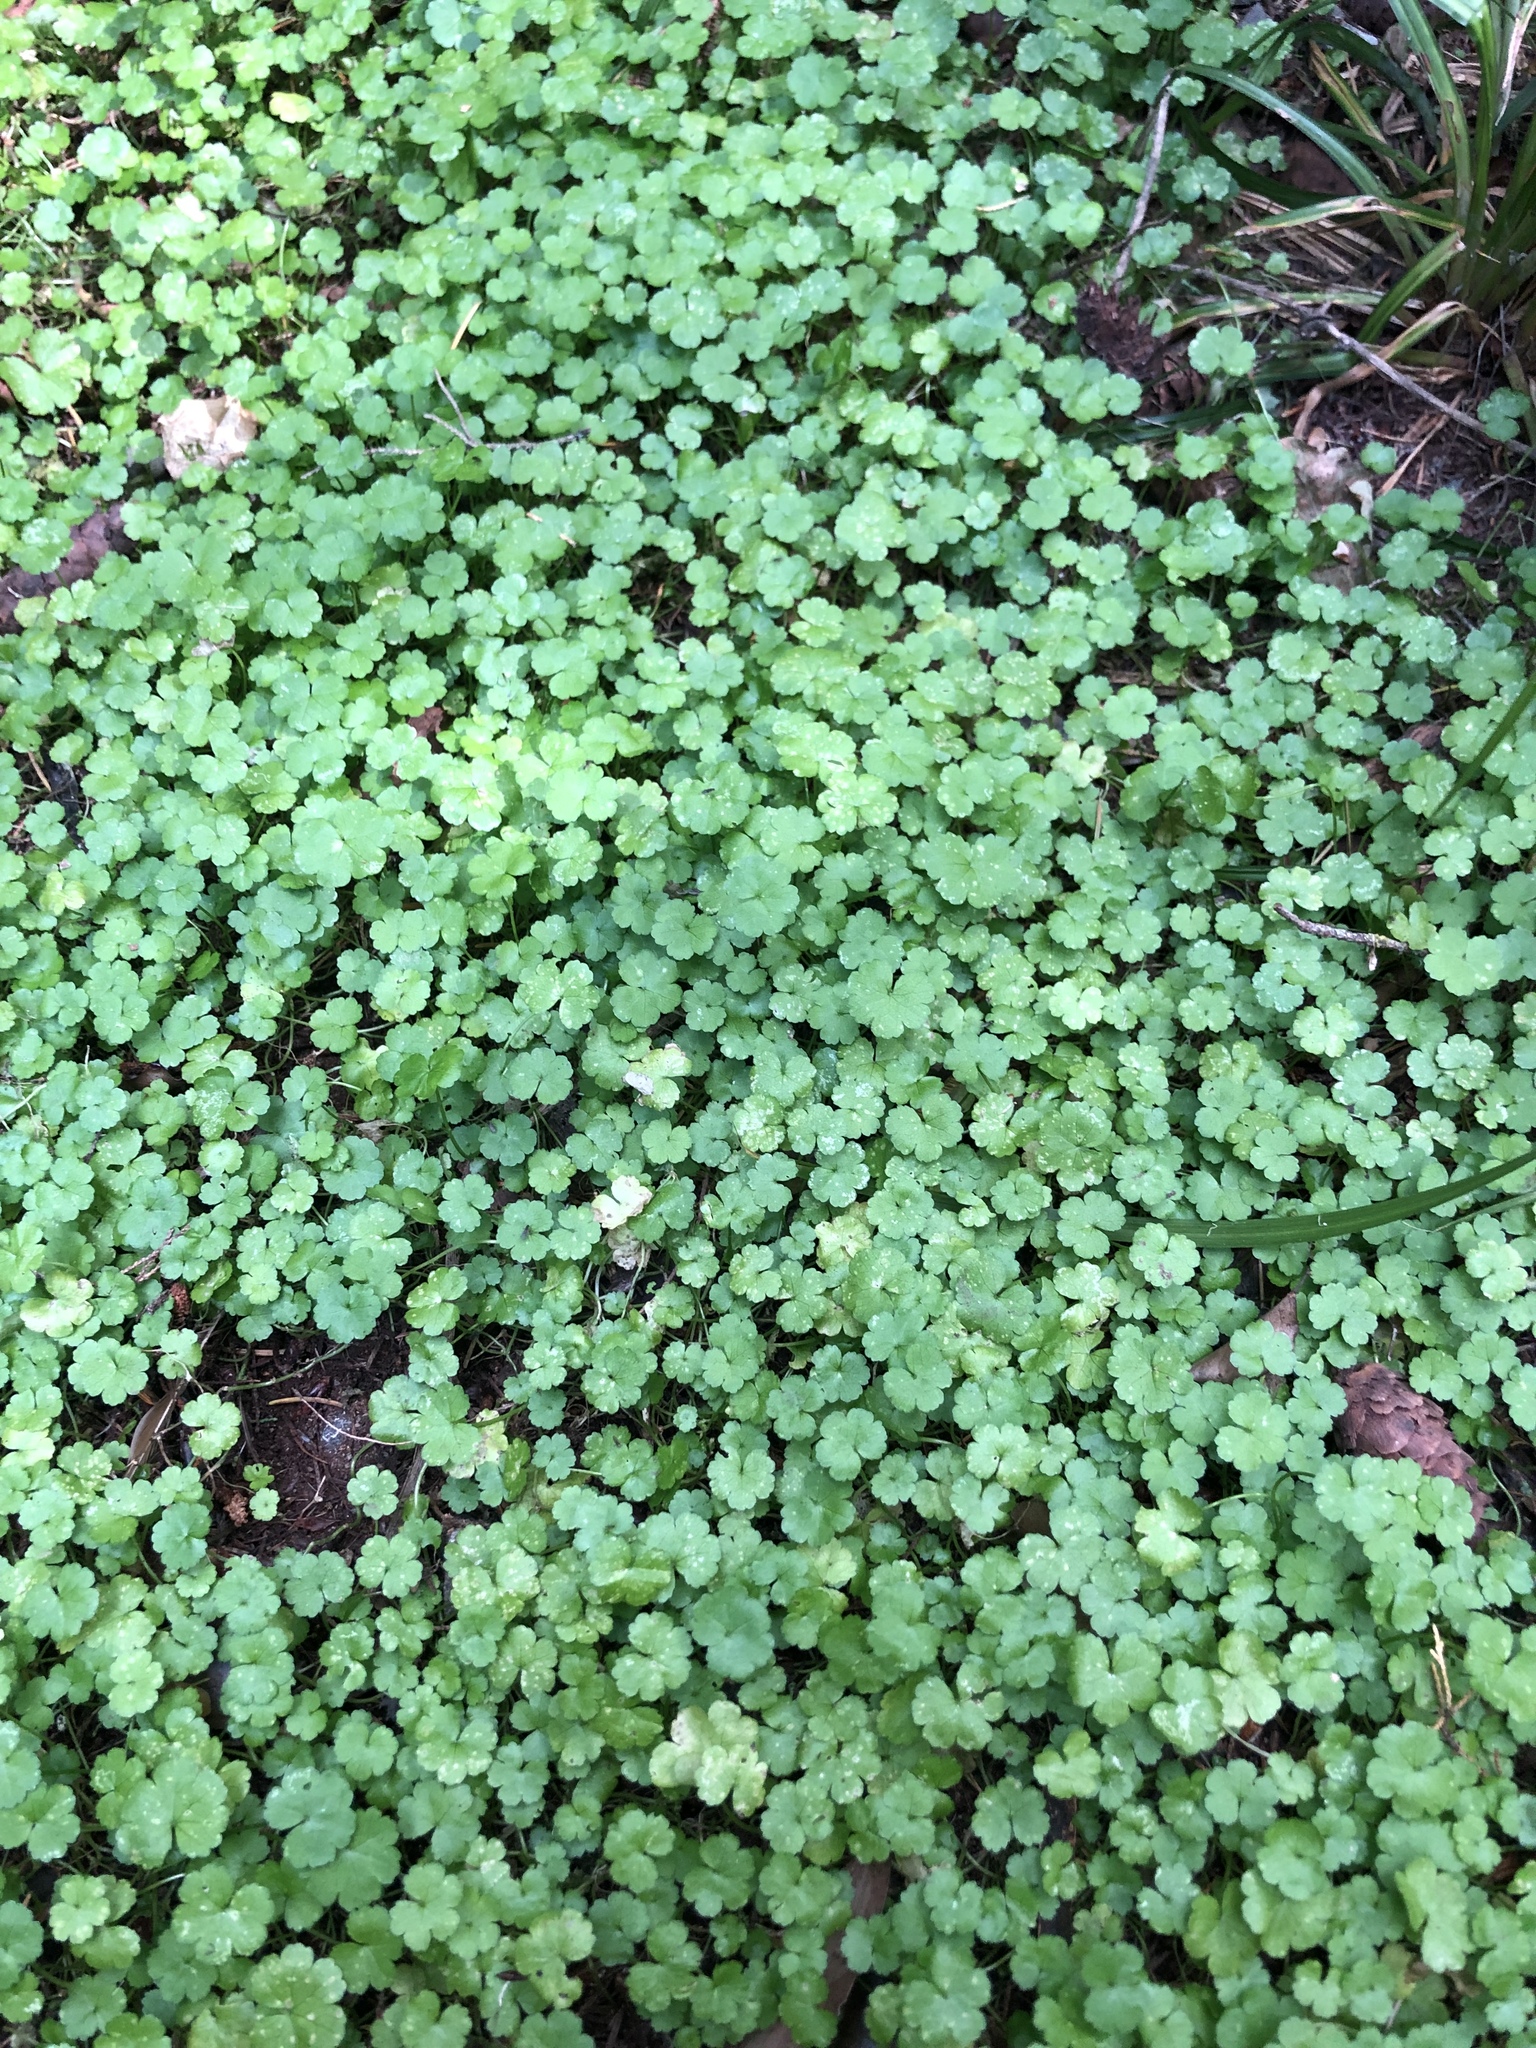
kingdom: Plantae
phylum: Tracheophyta
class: Magnoliopsida
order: Apiales
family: Araliaceae
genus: Hydrocotyle
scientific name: Hydrocotyle heteromeria
